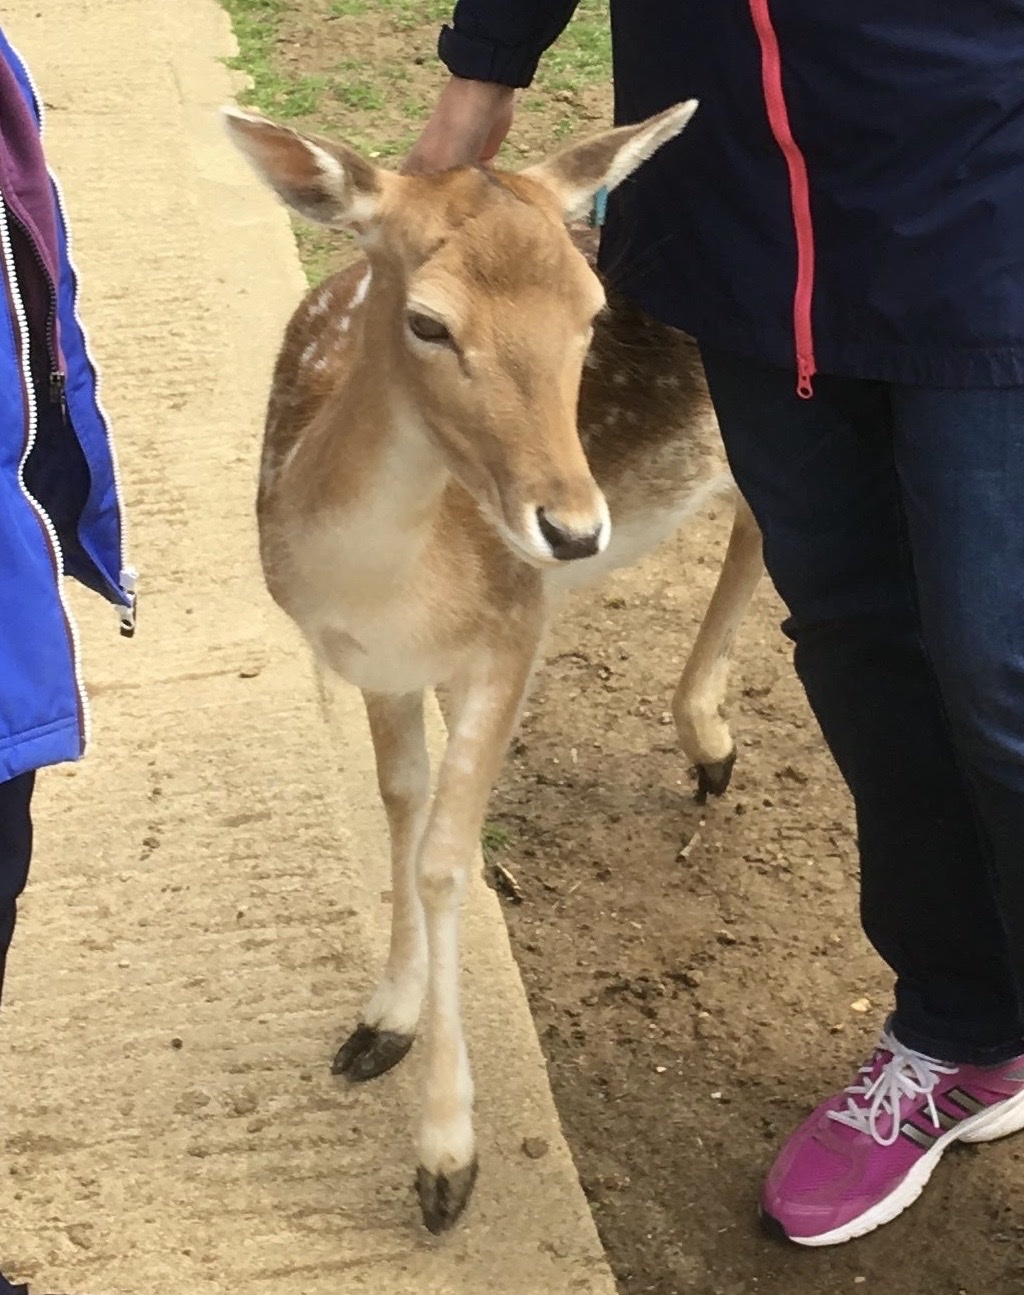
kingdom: Animalia
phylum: Chordata
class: Mammalia
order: Artiodactyla
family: Cervidae
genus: Dama
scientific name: Dama dama
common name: Fallow deer
